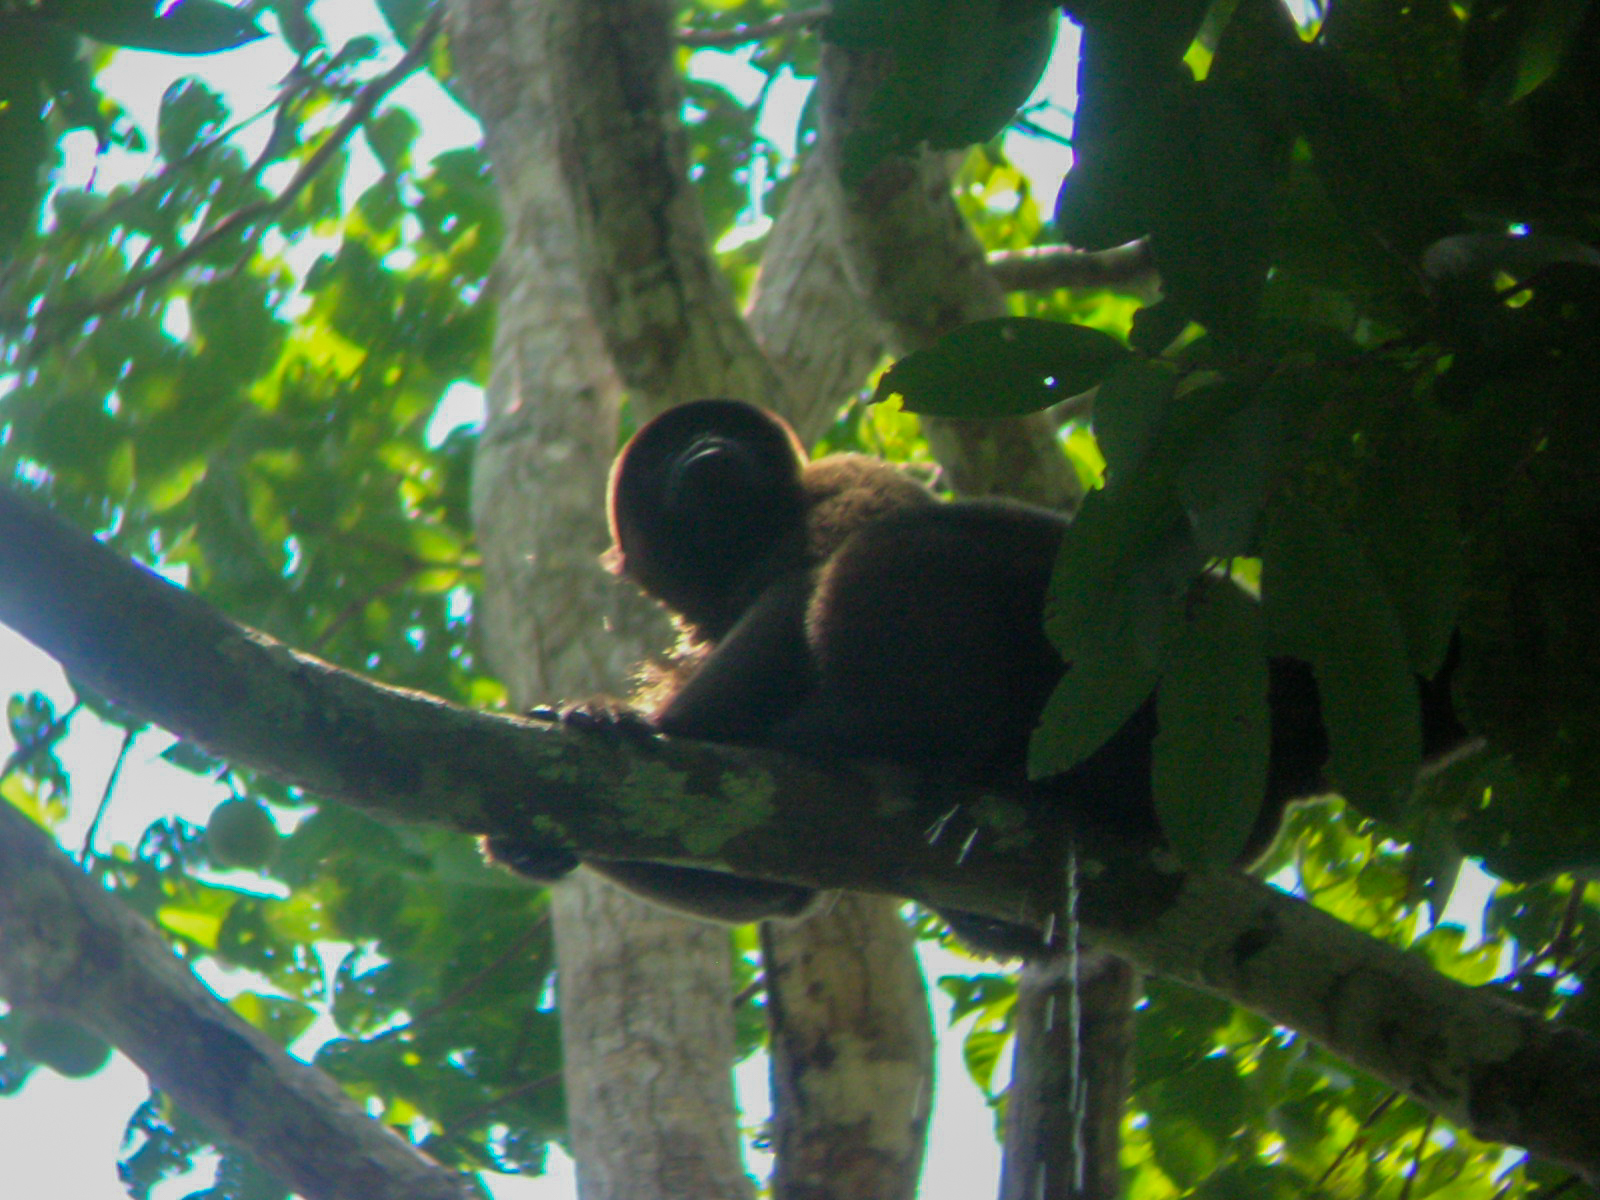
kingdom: Animalia
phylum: Chordata
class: Mammalia
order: Primates
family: Atelidae
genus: Lagothrix
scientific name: Lagothrix lagothricha
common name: Brown woolly monkey
